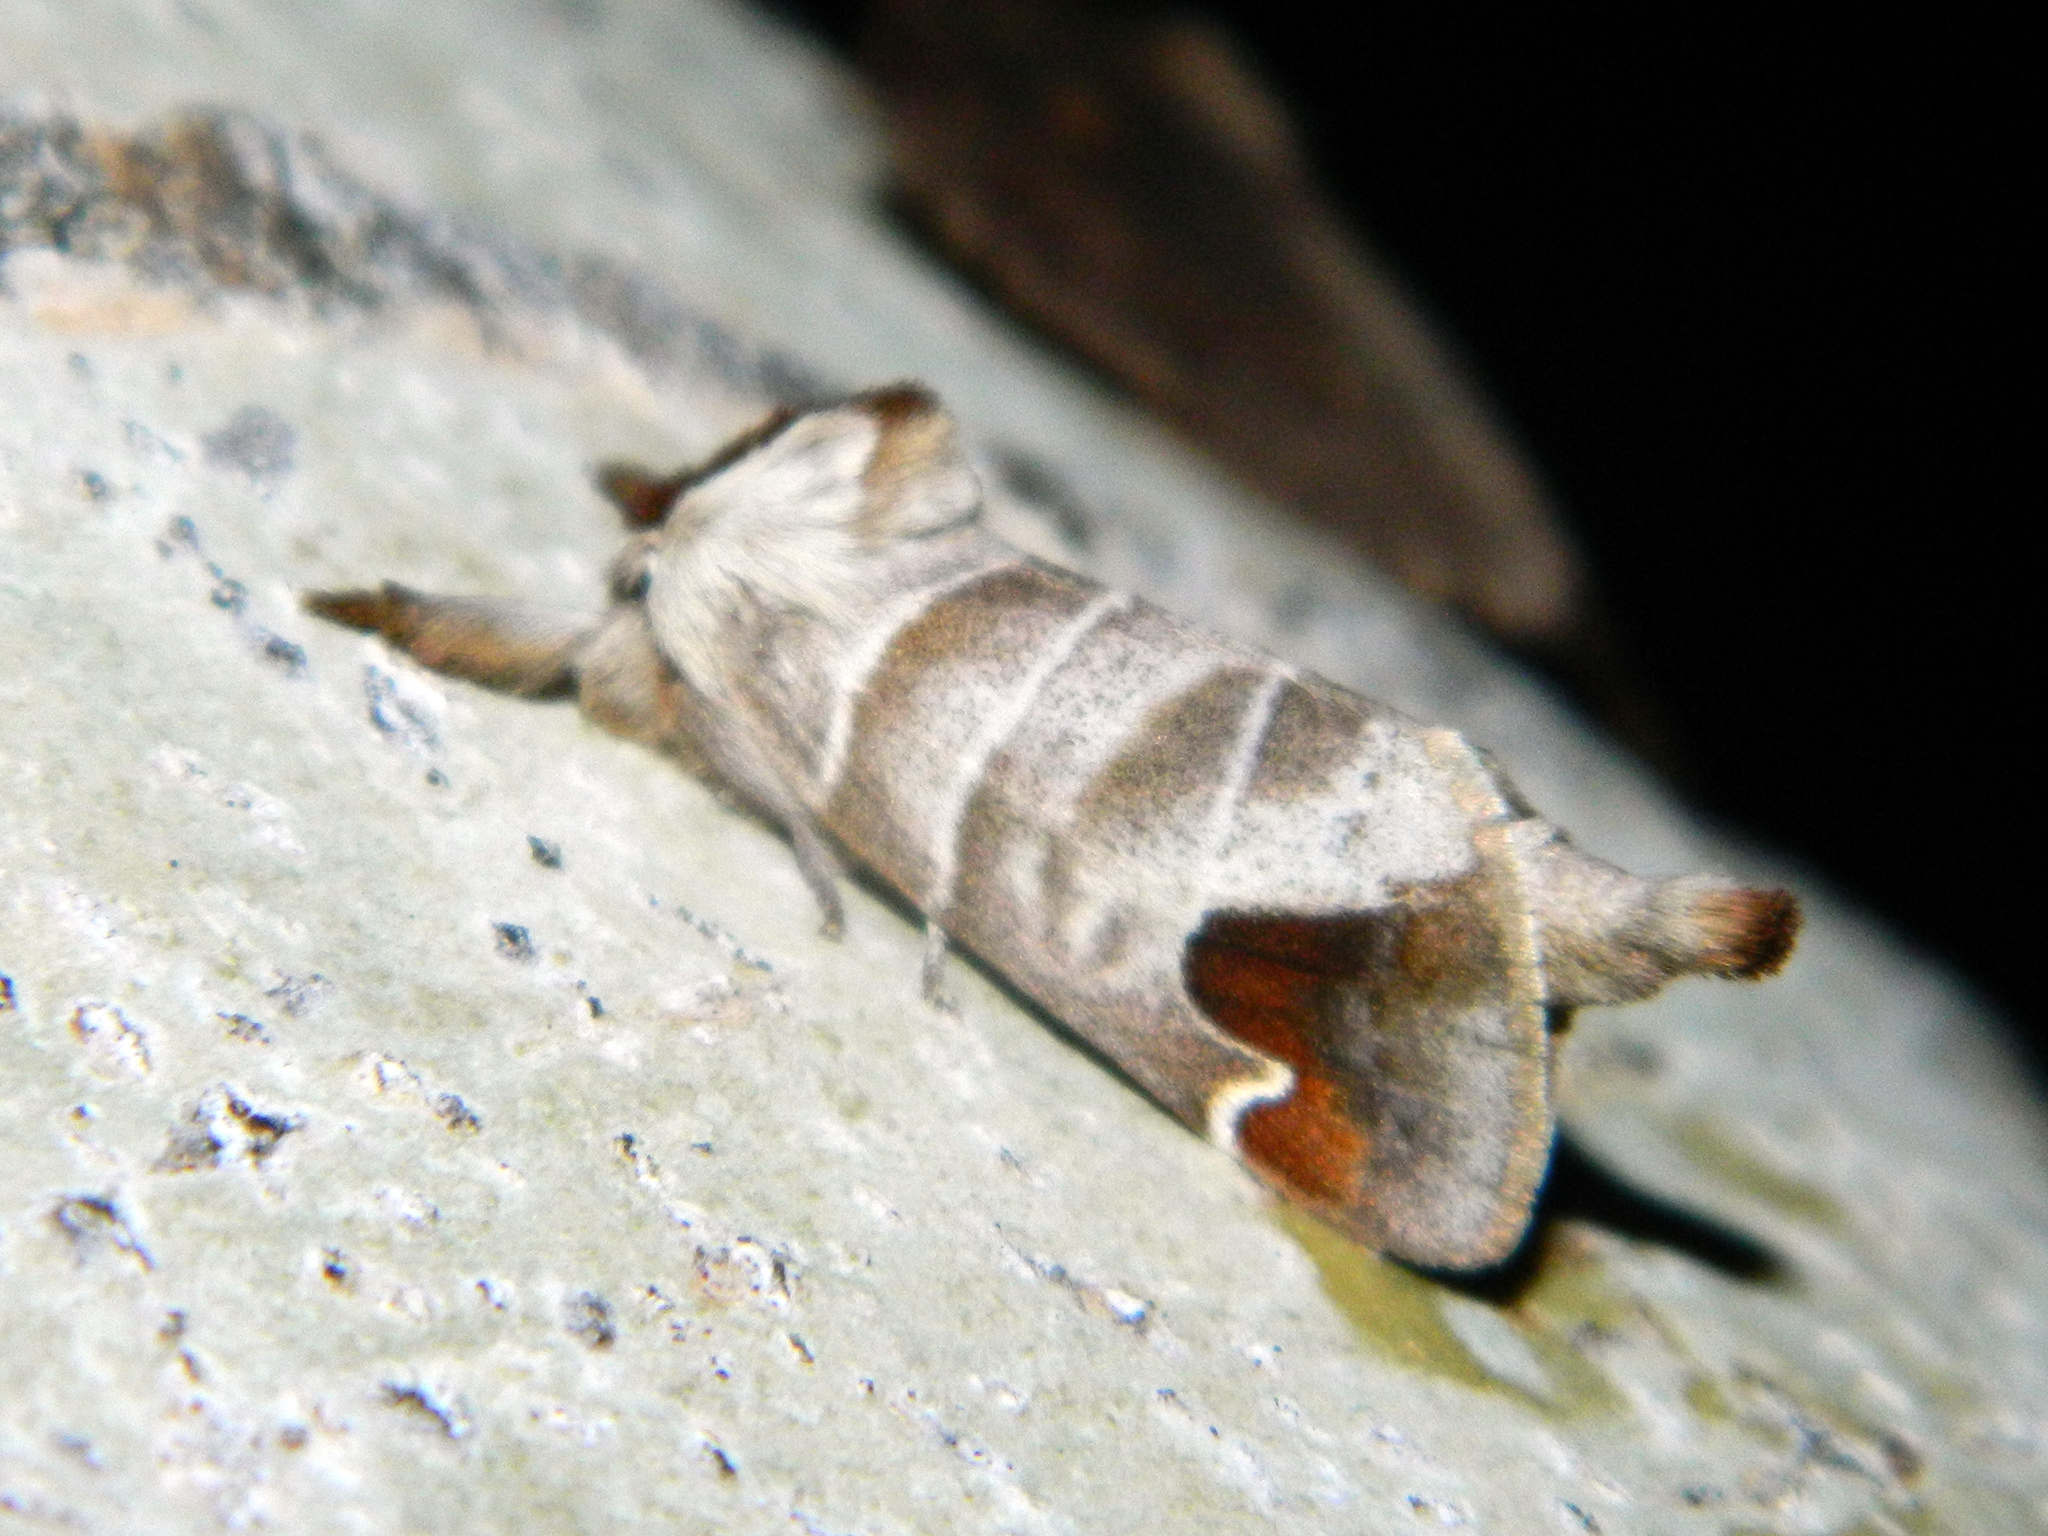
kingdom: Animalia
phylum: Arthropoda
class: Insecta
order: Lepidoptera
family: Notodontidae
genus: Clostera
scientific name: Clostera albosigma
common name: Sigmoid prominent
